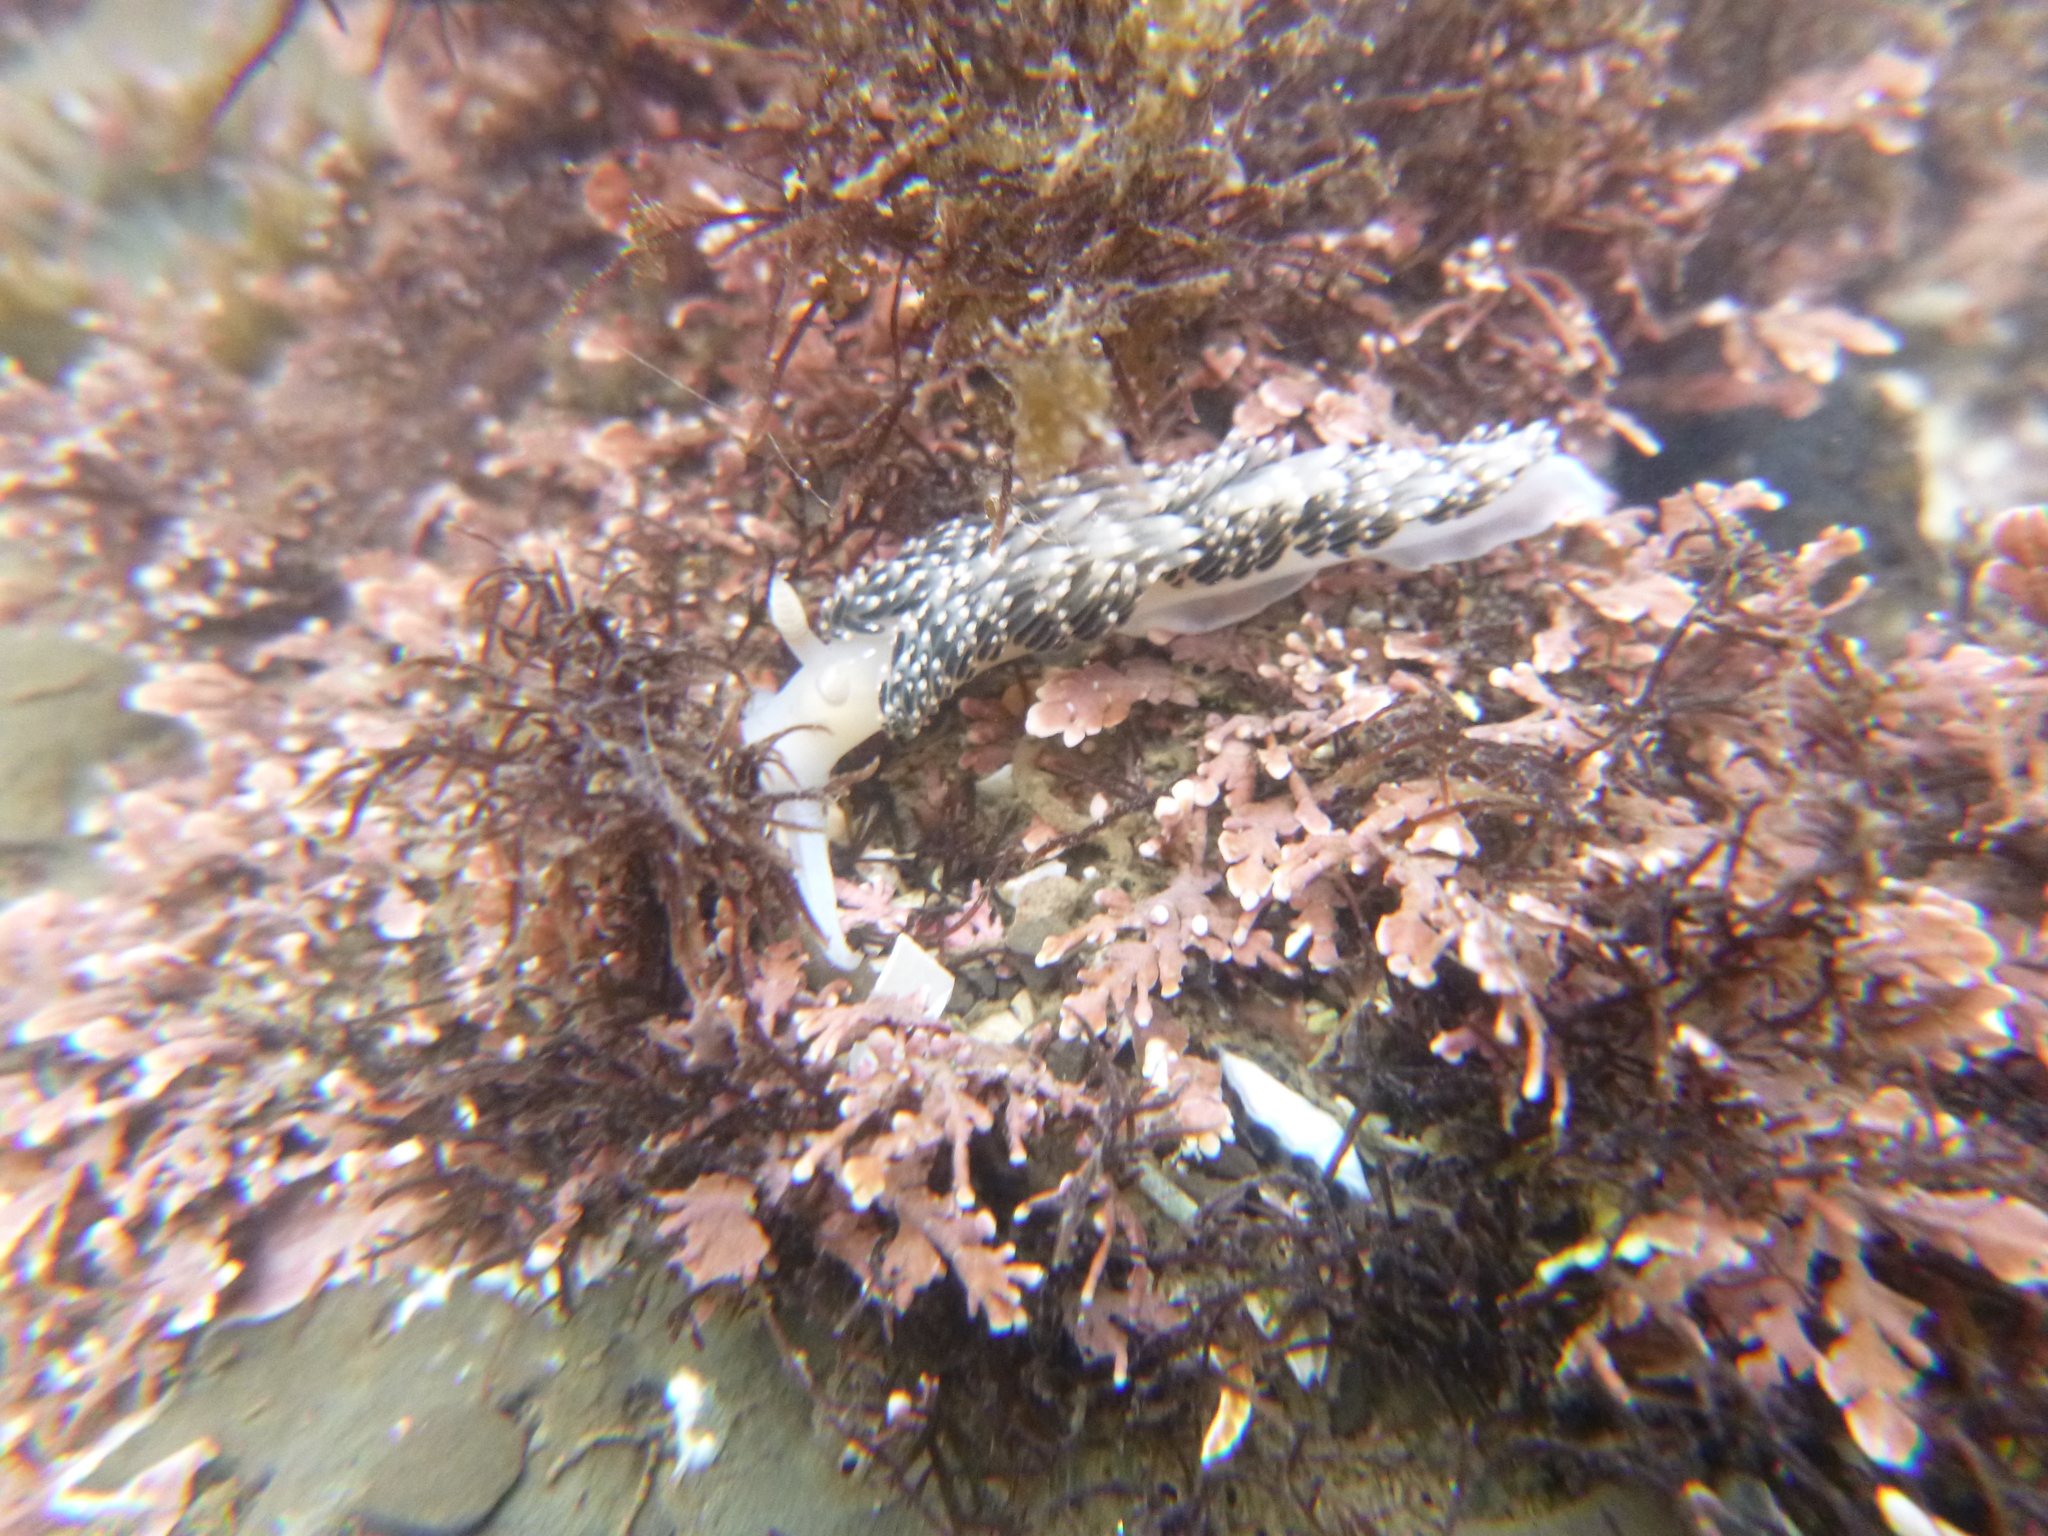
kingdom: Animalia
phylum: Mollusca
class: Gastropoda
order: Nudibranchia
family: Facelinidae
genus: Phidiana
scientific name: Phidiana hiltoni
